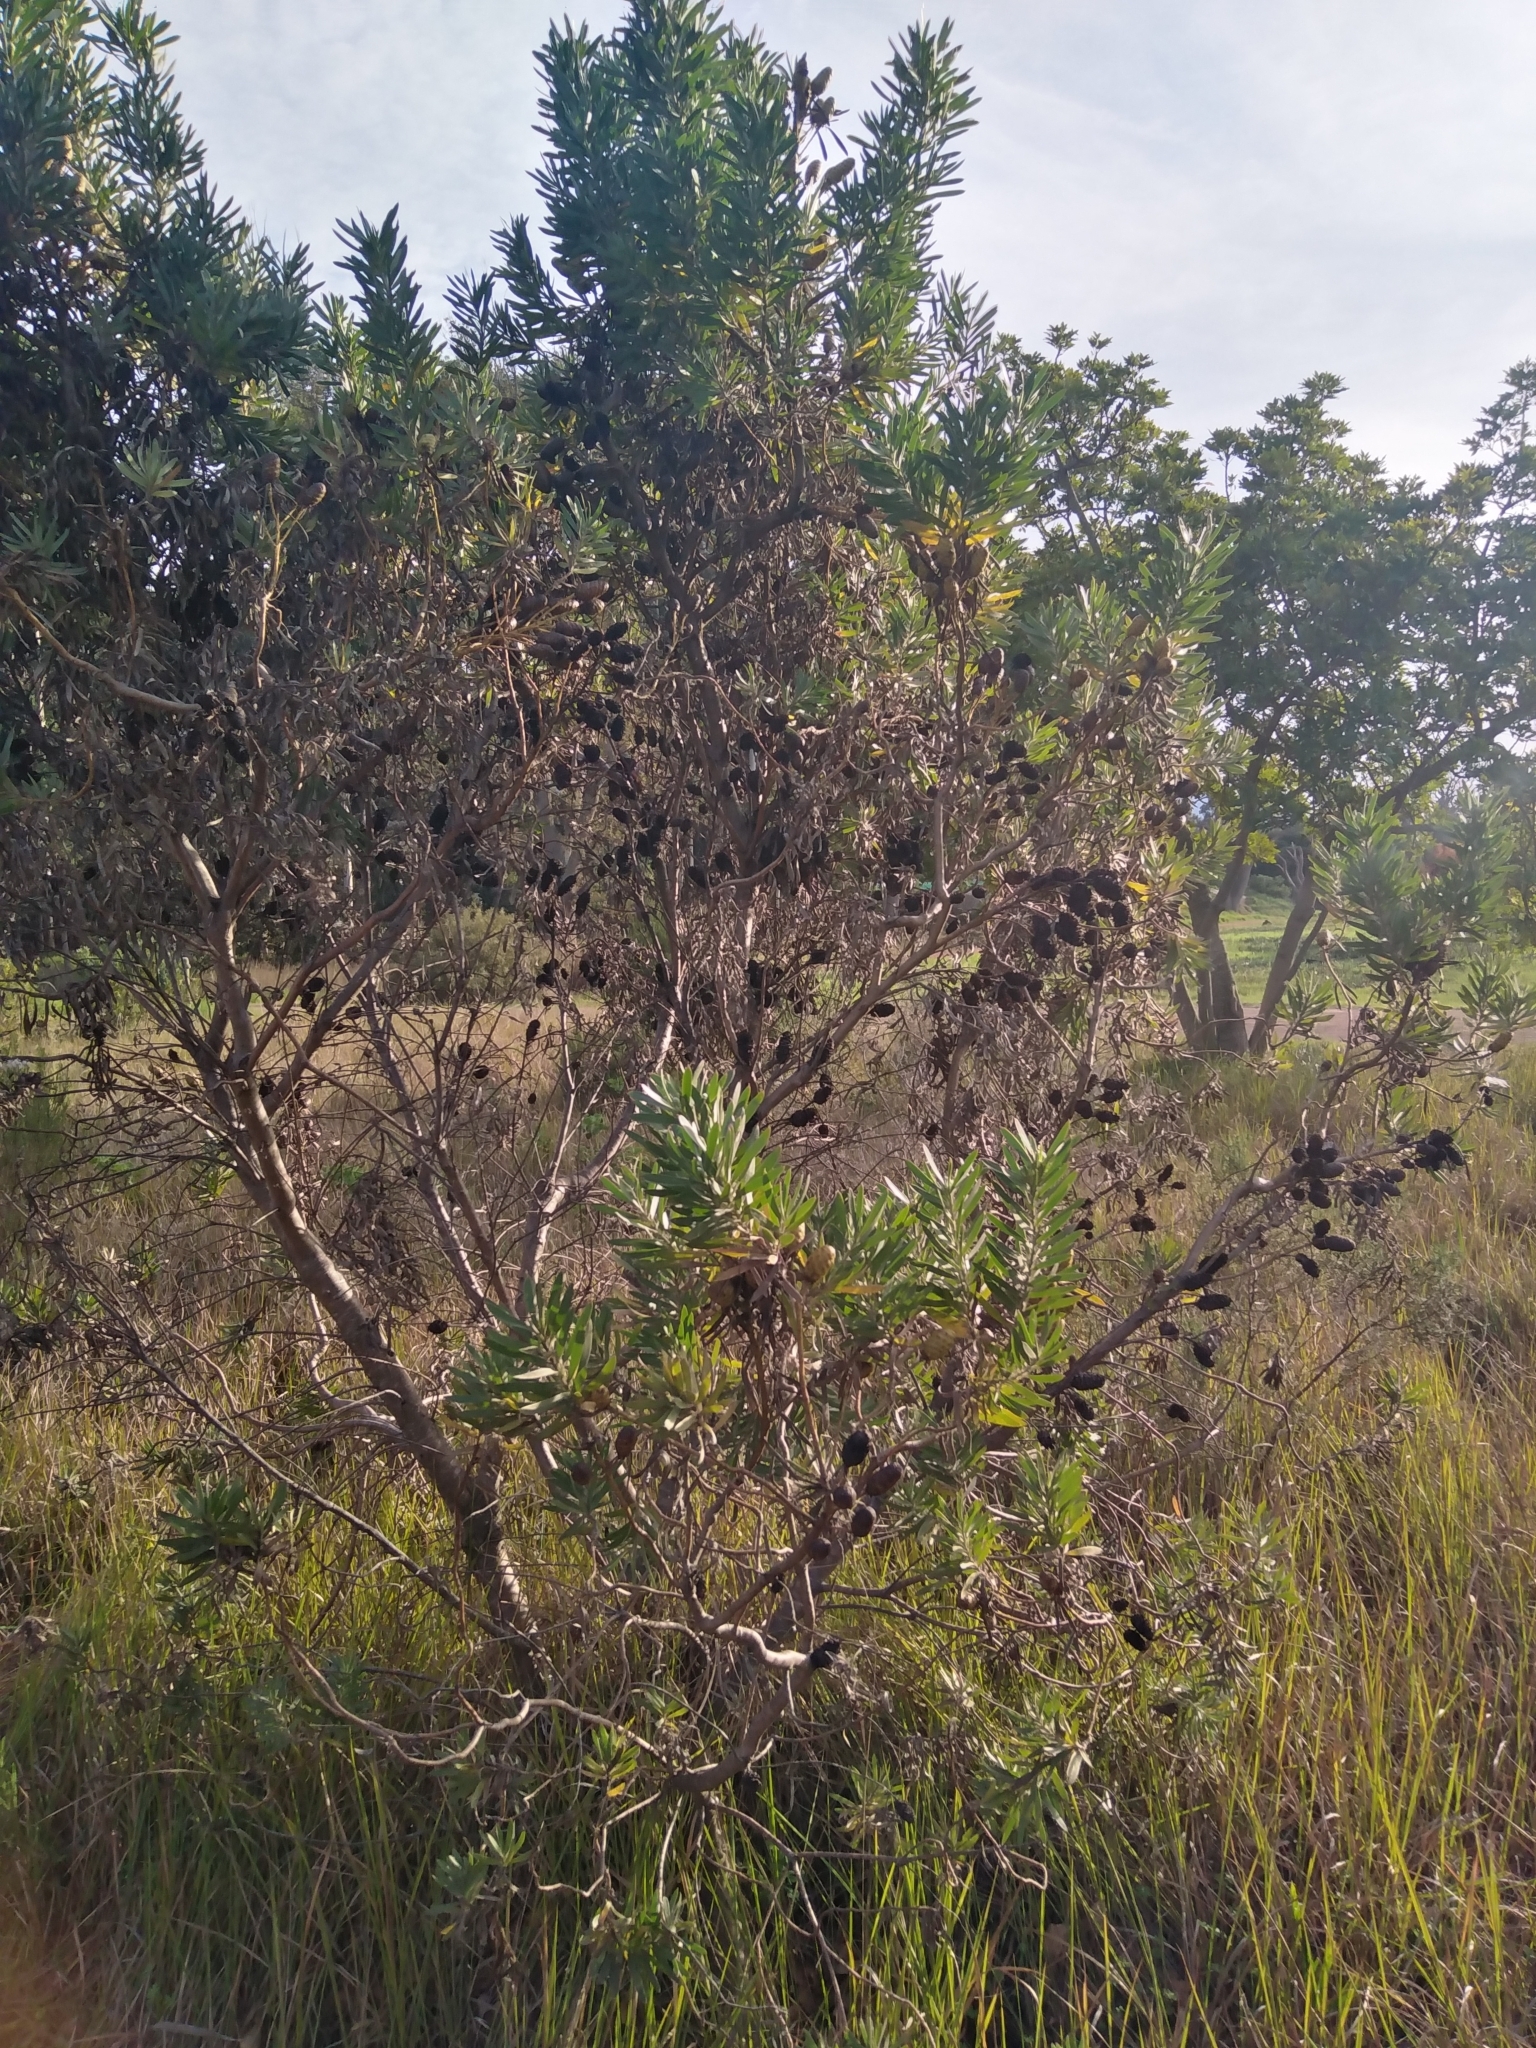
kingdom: Plantae
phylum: Tracheophyta
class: Magnoliopsida
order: Proteales
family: Proteaceae
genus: Leucadendron
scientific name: Leucadendron macowanii
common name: Acacia-leaf conebush
